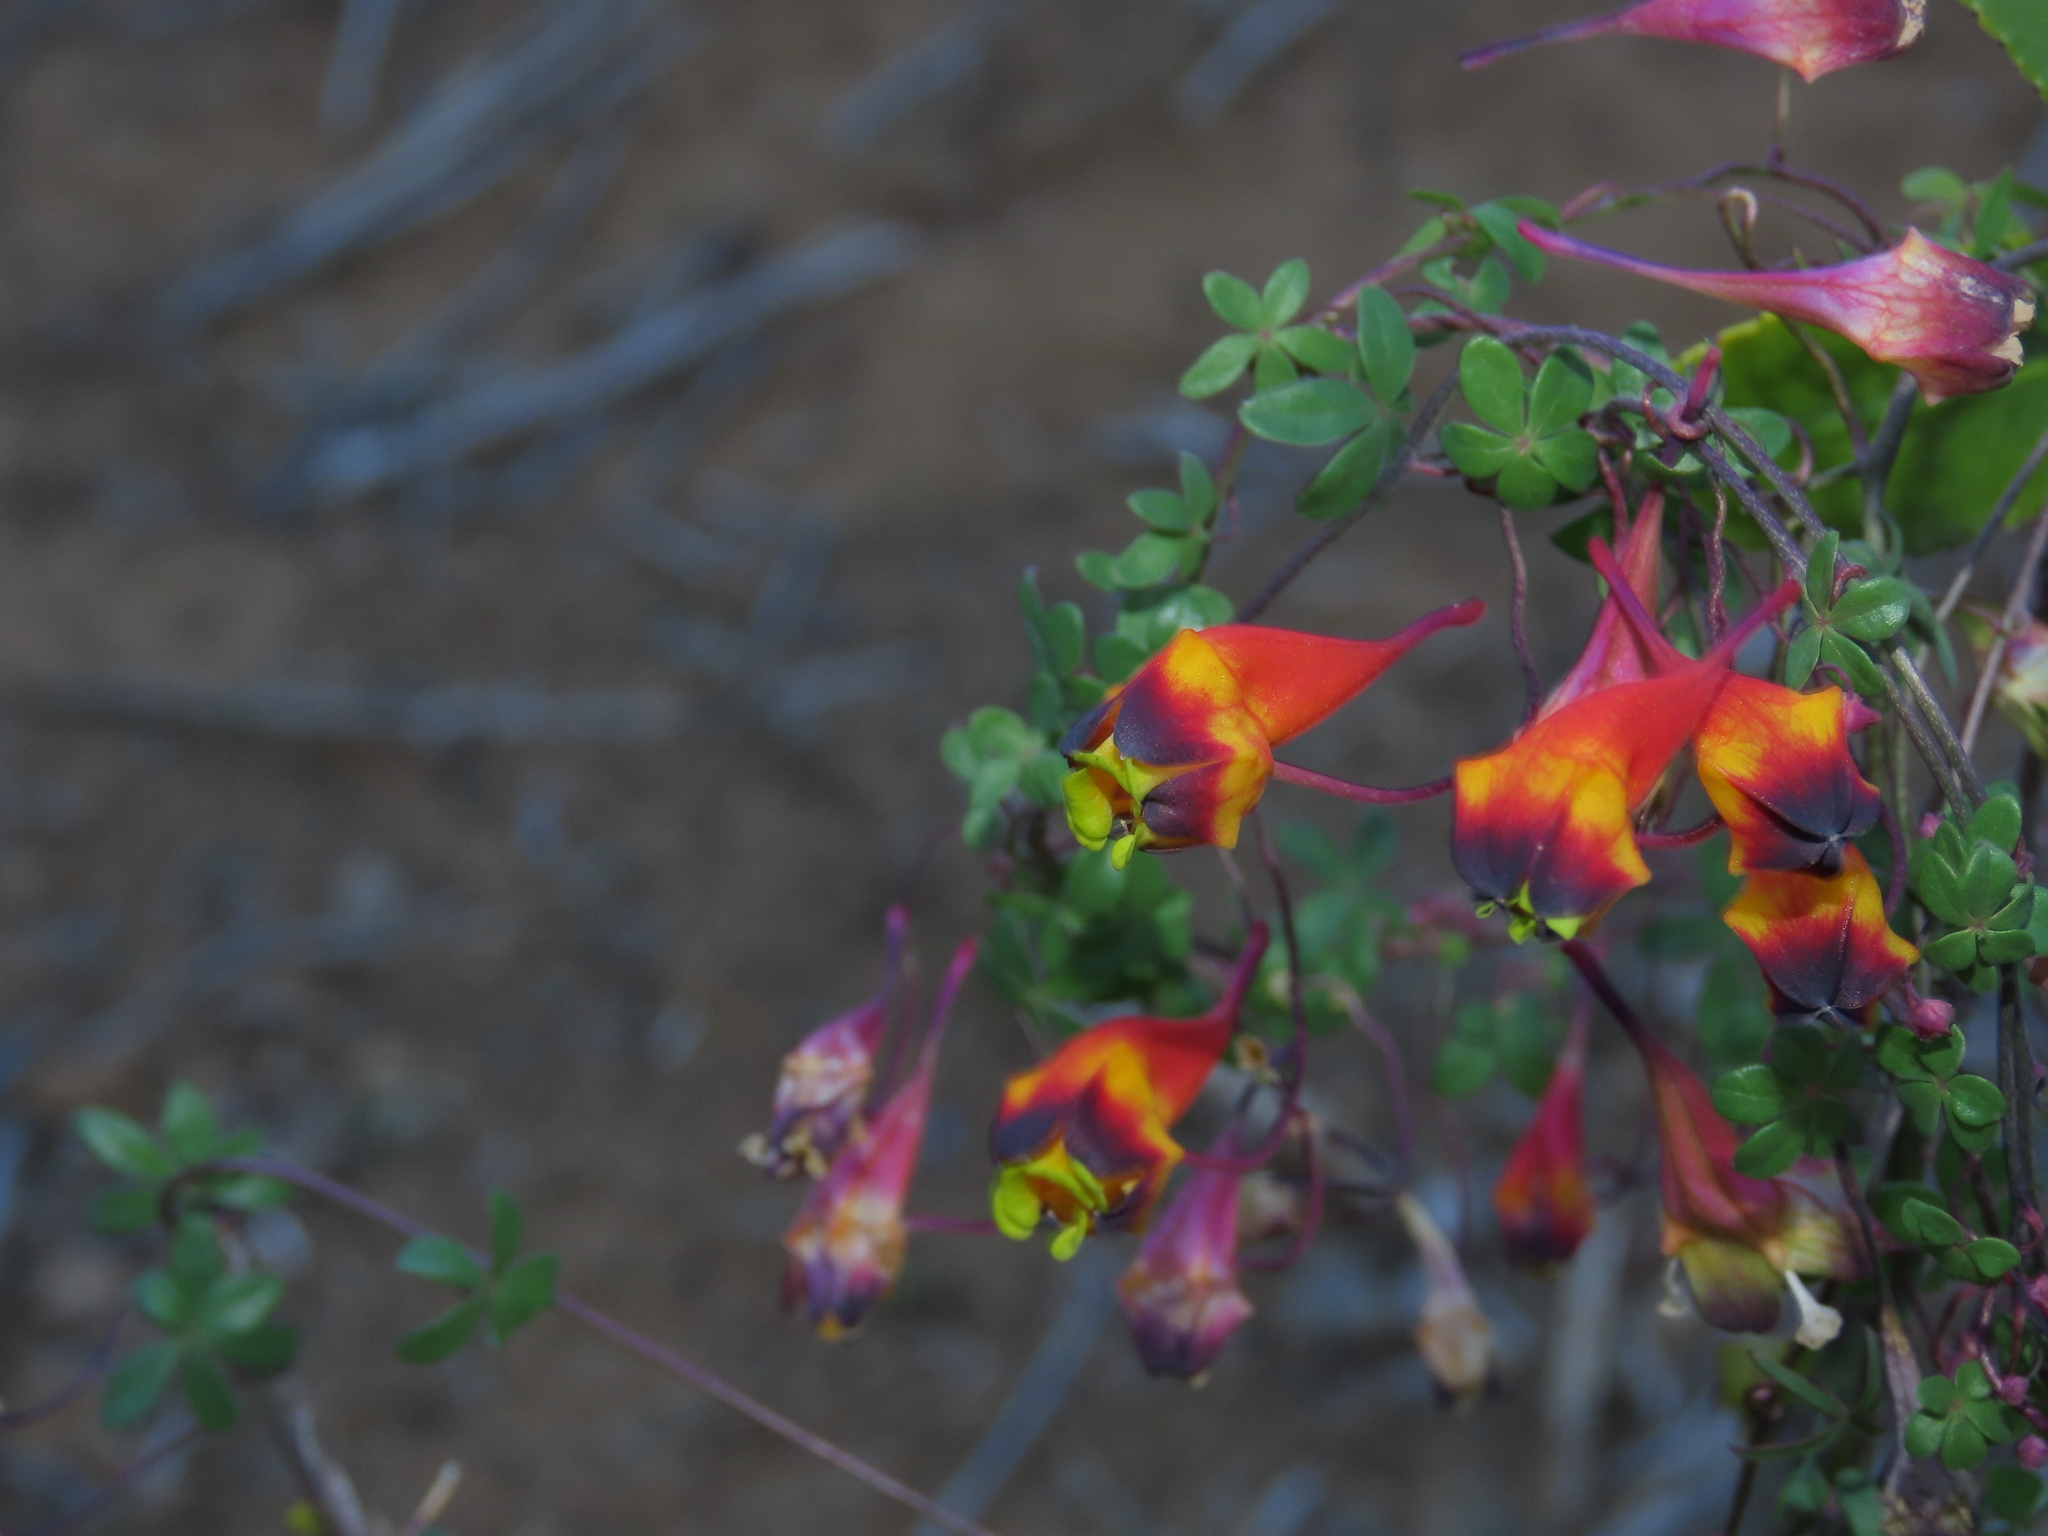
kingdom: Plantae
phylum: Tracheophyta
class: Magnoliopsida
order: Brassicales
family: Tropaeolaceae
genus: Tropaeolum
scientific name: Tropaeolum tricolor
